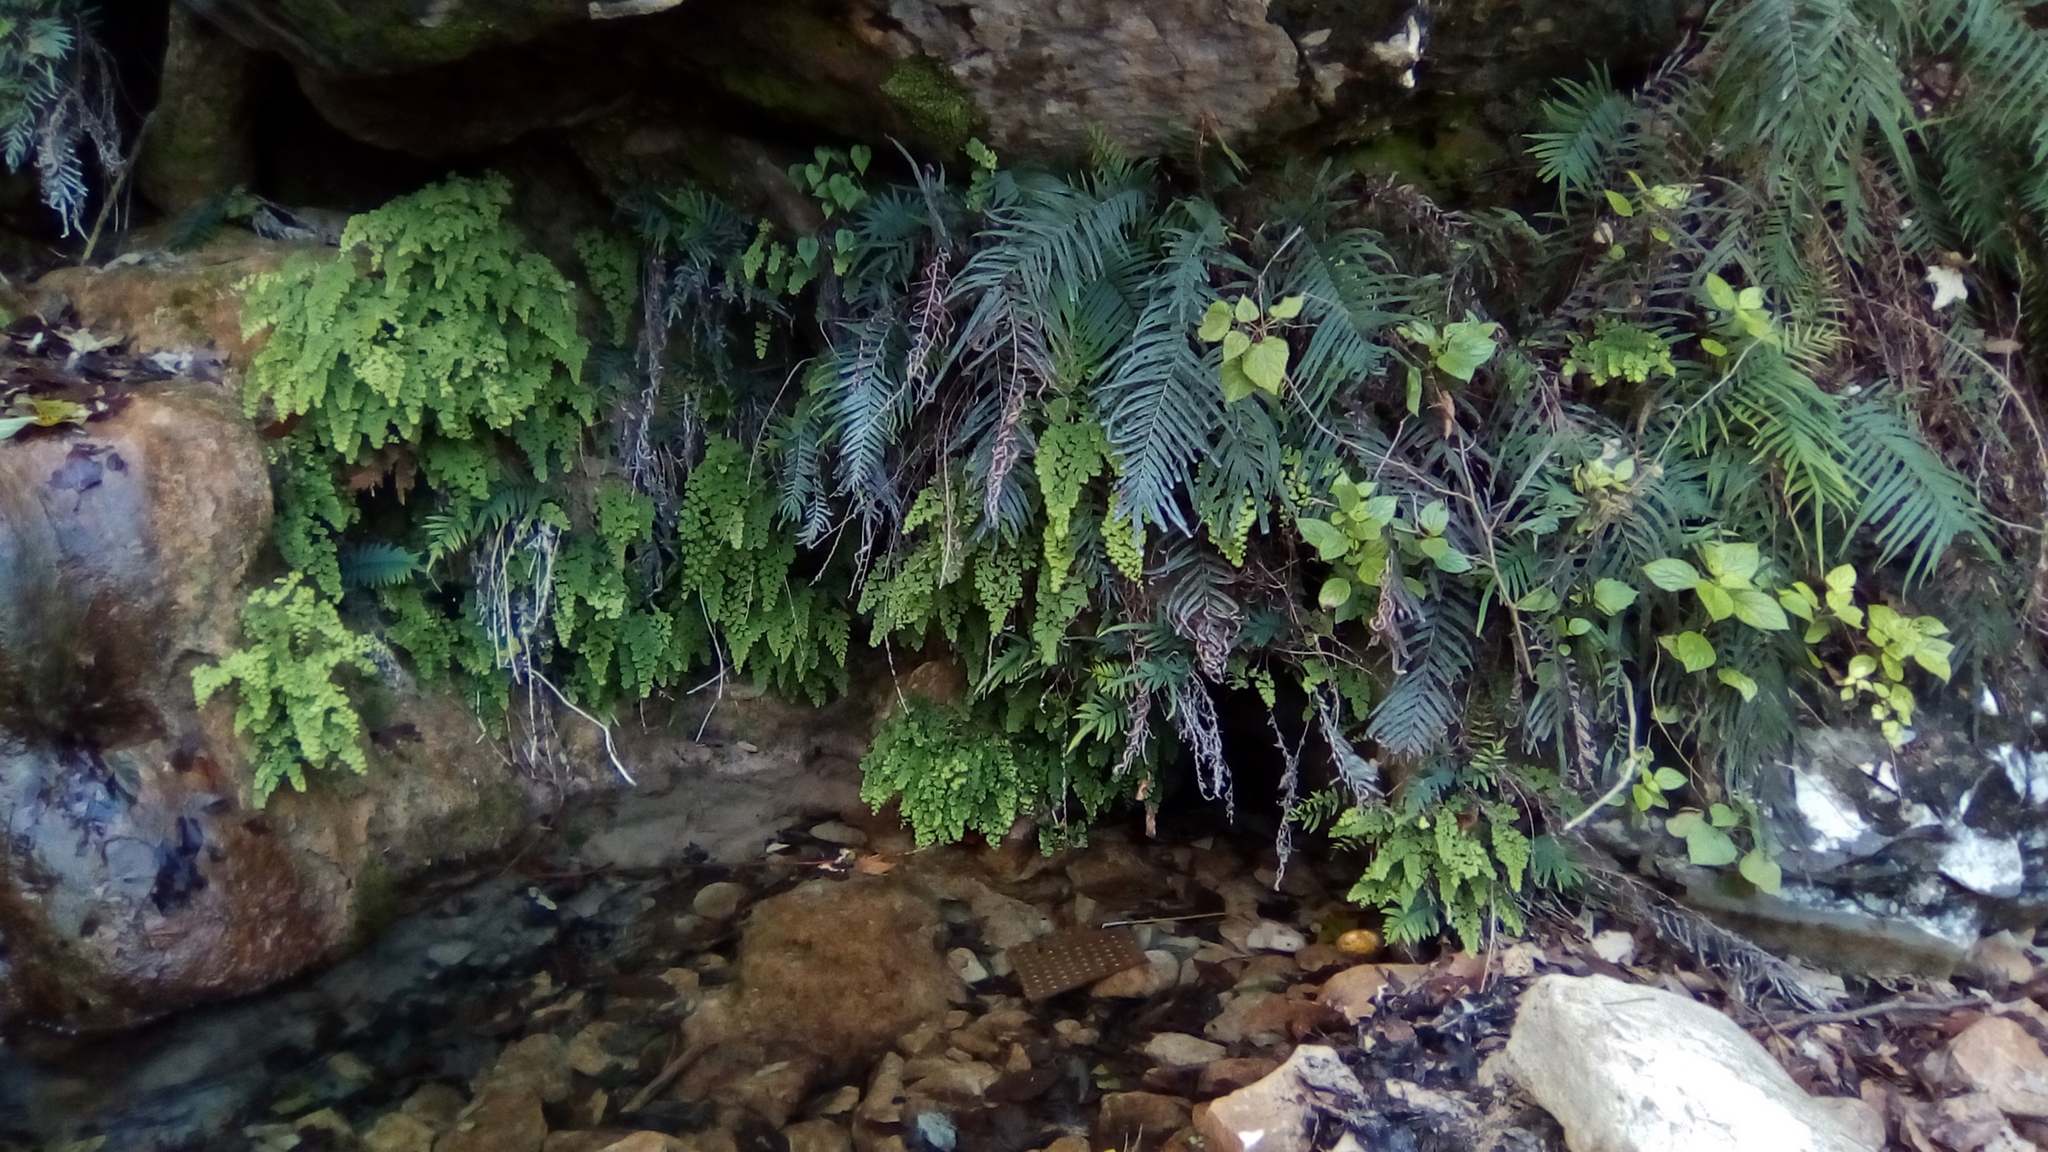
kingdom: Plantae
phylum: Tracheophyta
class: Polypodiopsida
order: Polypodiales
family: Pteridaceae
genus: Pteris
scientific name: Pteris vittata
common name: Ladder brake
